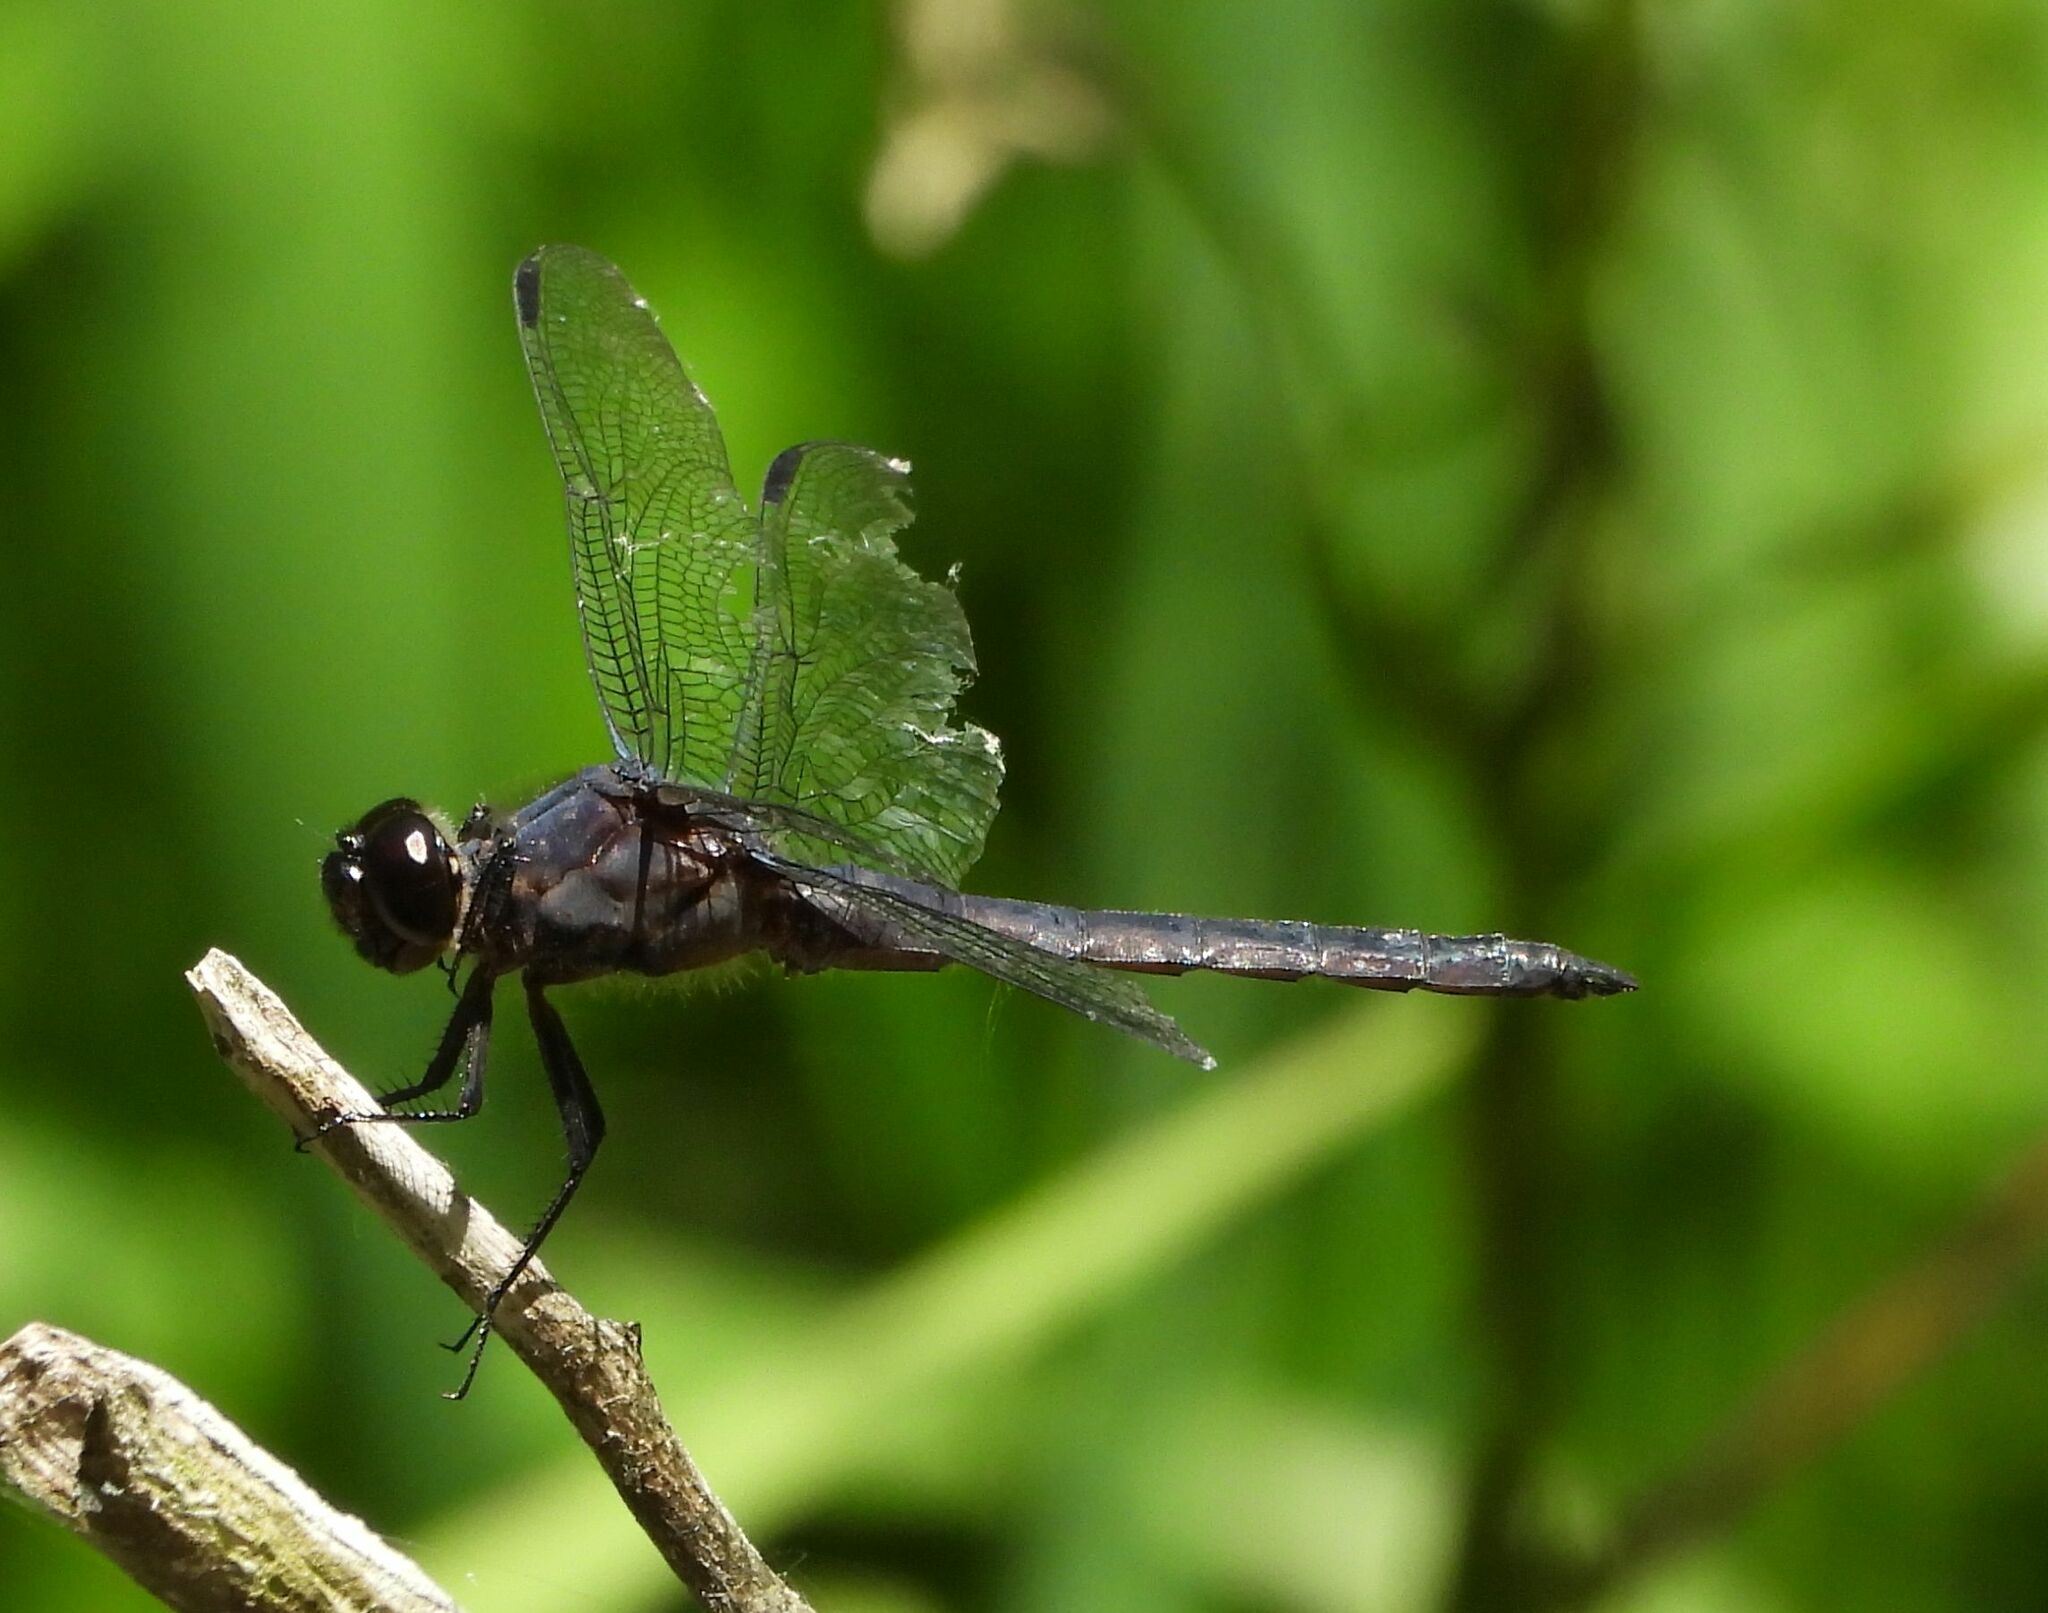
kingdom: Animalia
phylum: Arthropoda
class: Insecta
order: Odonata
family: Libellulidae
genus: Libellula
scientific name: Libellula incesta
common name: Slaty skimmer
